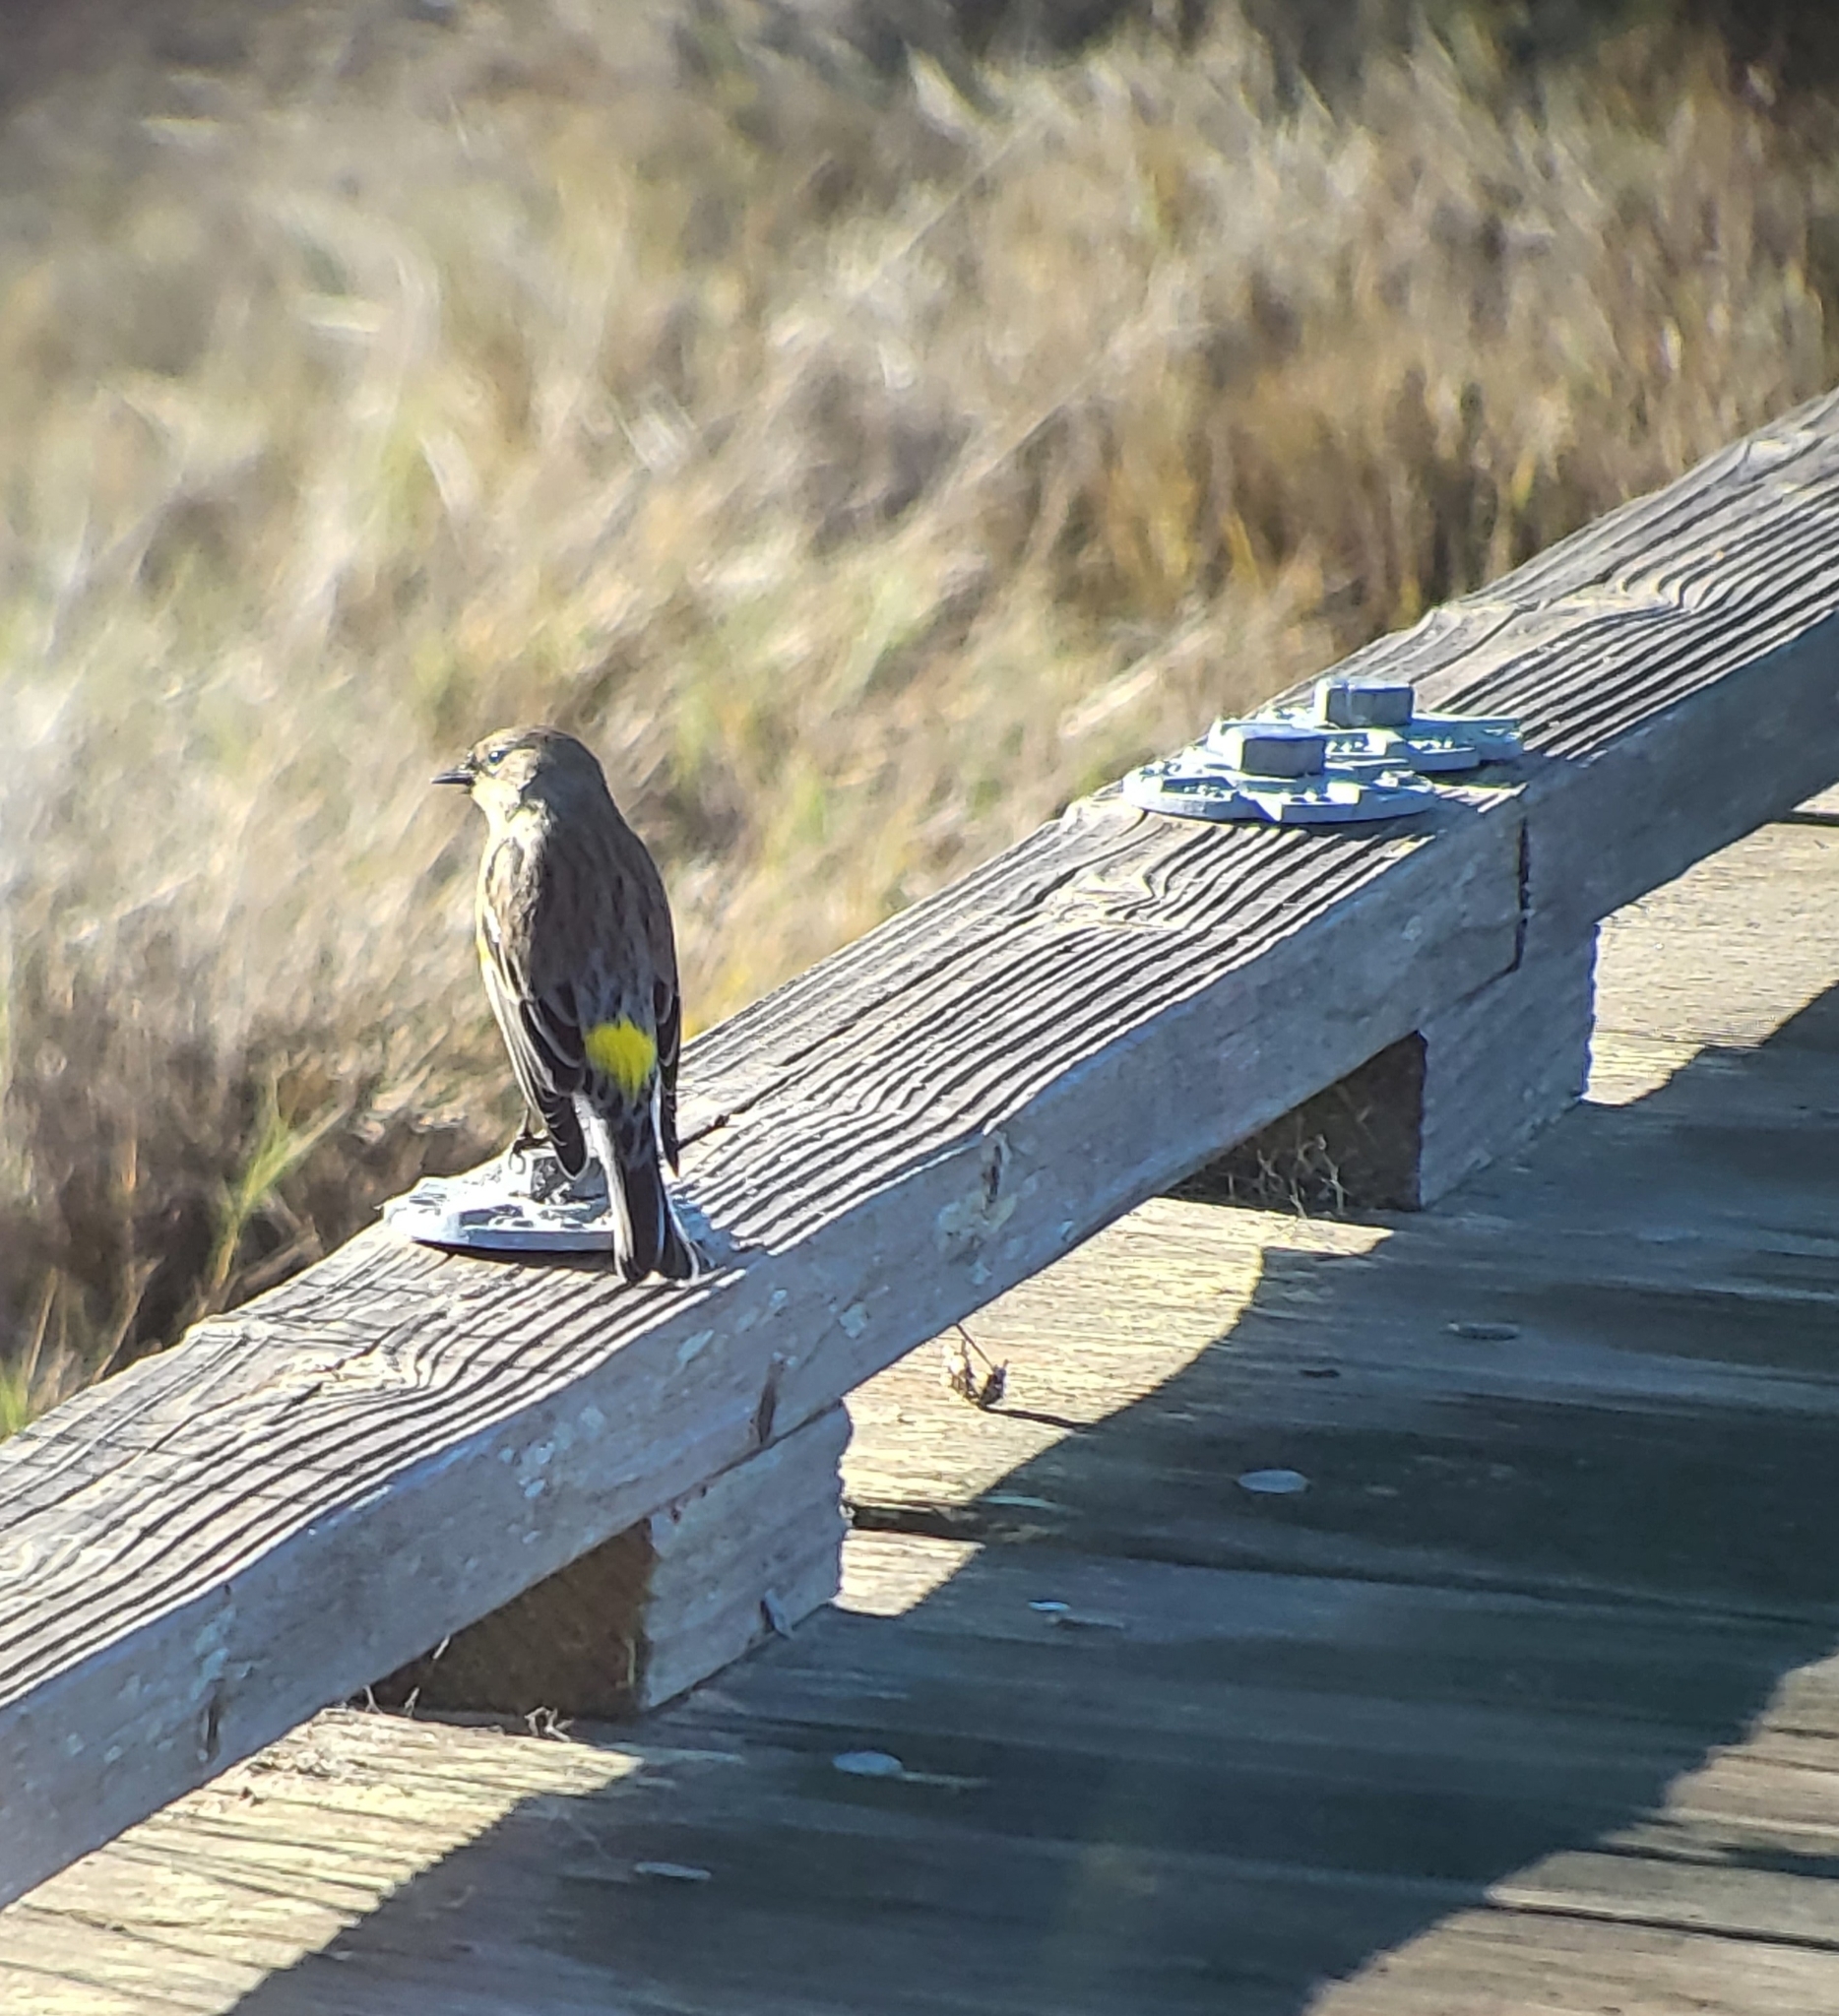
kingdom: Animalia
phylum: Chordata
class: Aves
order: Passeriformes
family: Parulidae
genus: Setophaga
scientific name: Setophaga coronata
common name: Myrtle warbler
